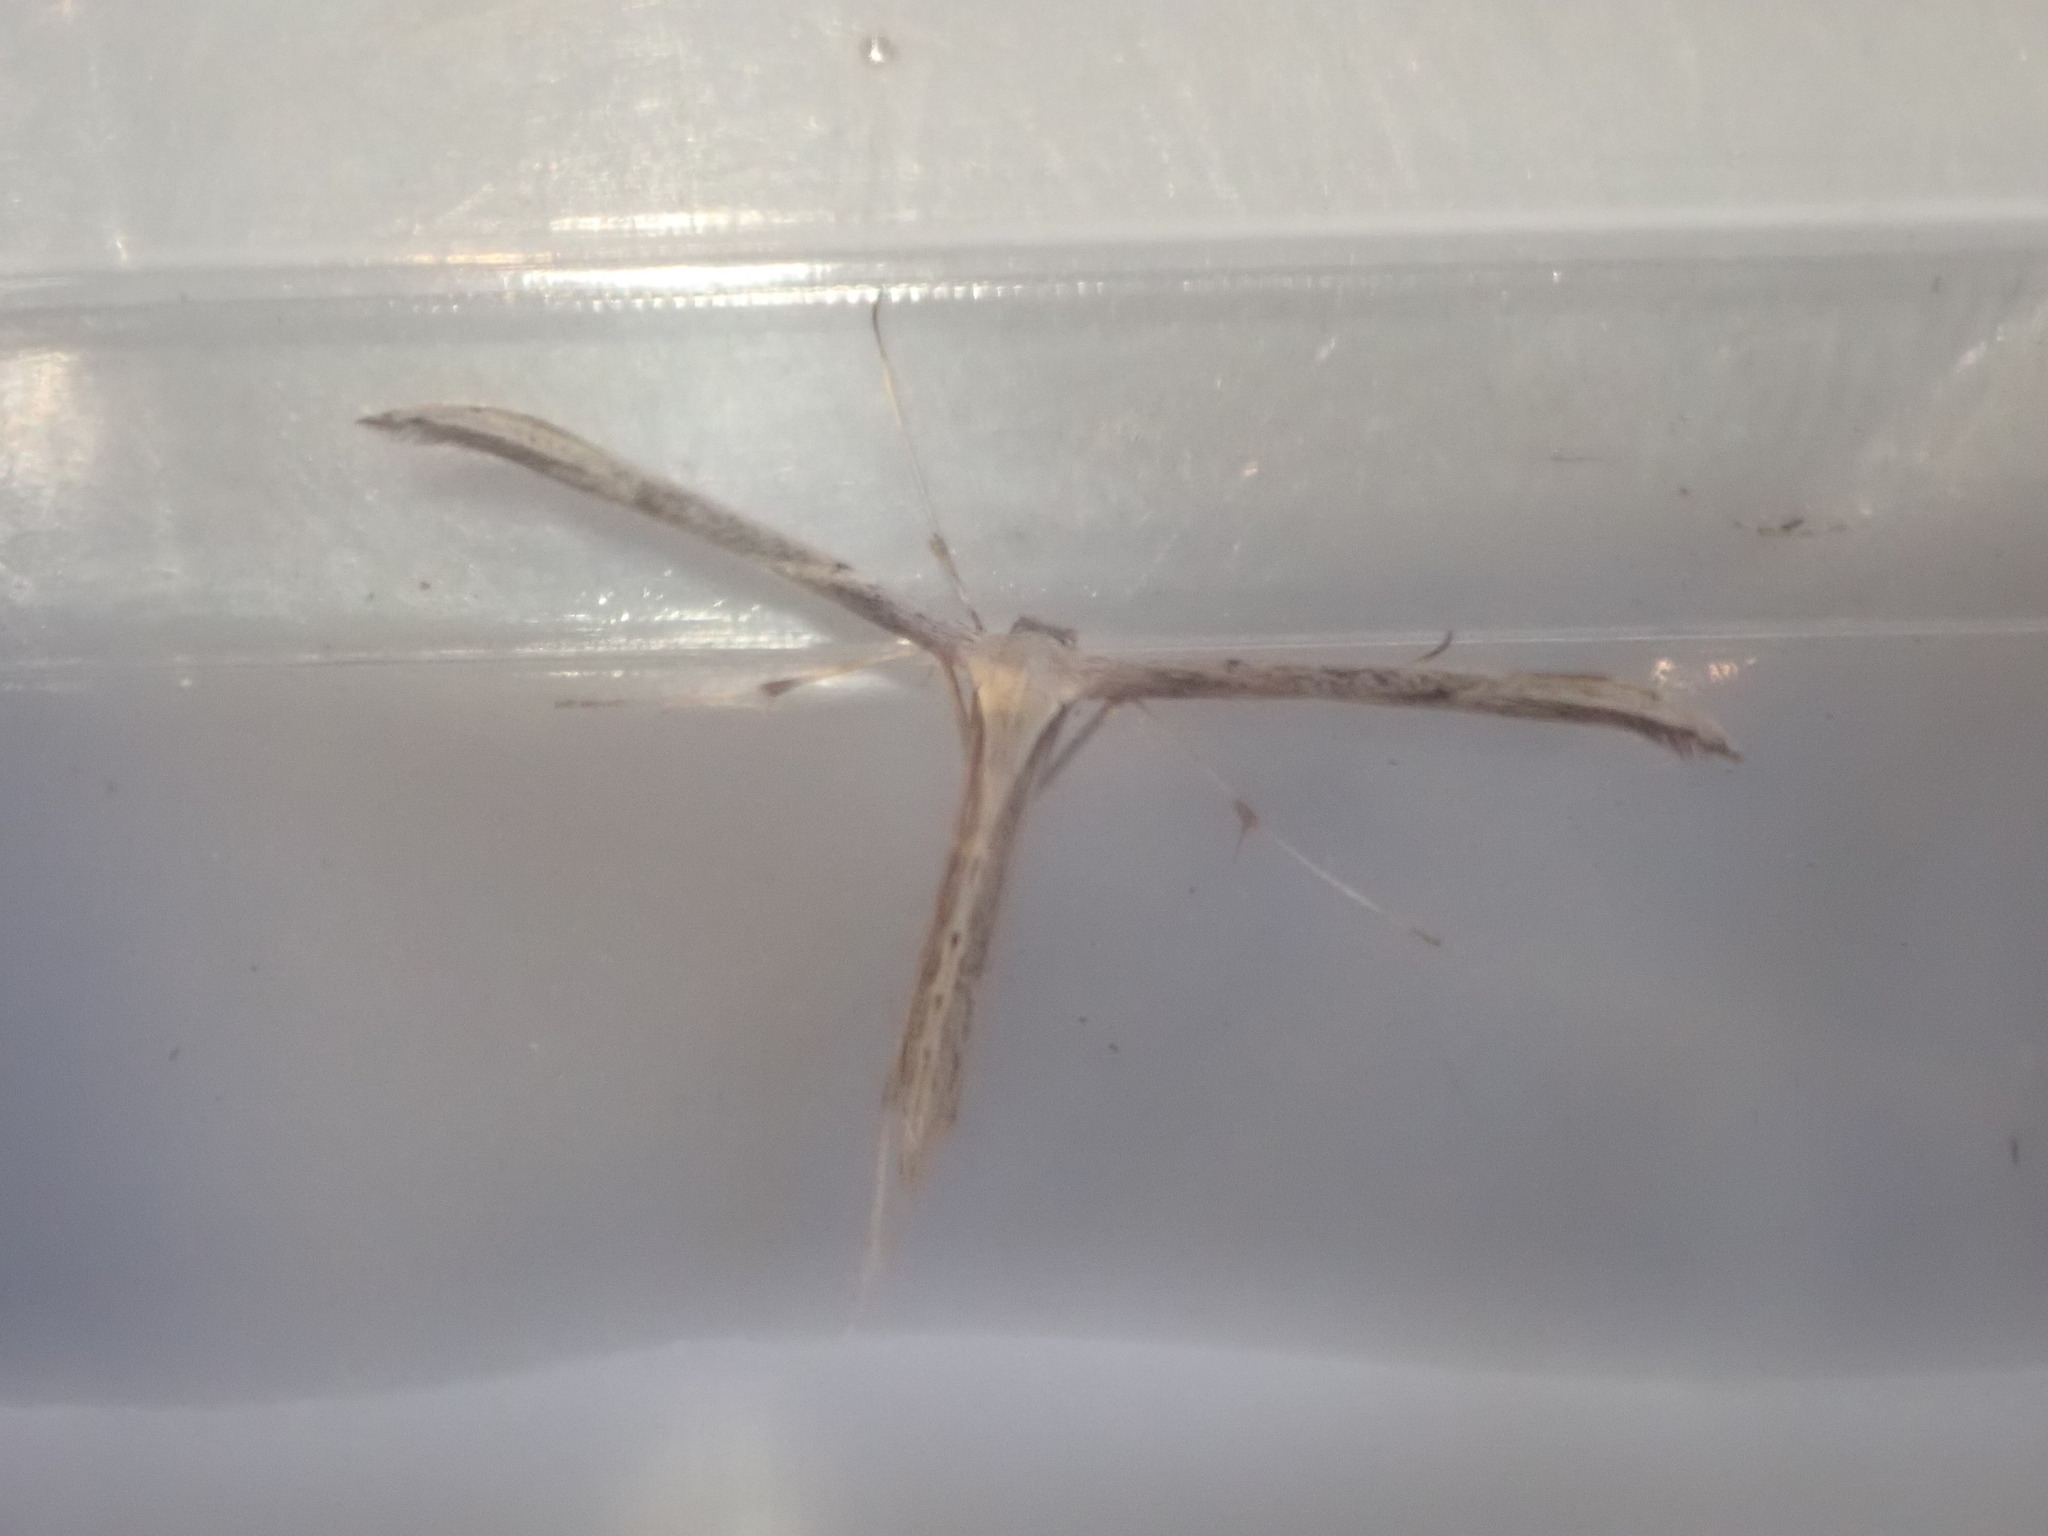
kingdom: Animalia
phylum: Arthropoda
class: Insecta
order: Lepidoptera
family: Pterophoridae
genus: Emmelina
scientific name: Emmelina monodactyla
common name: Common plume
